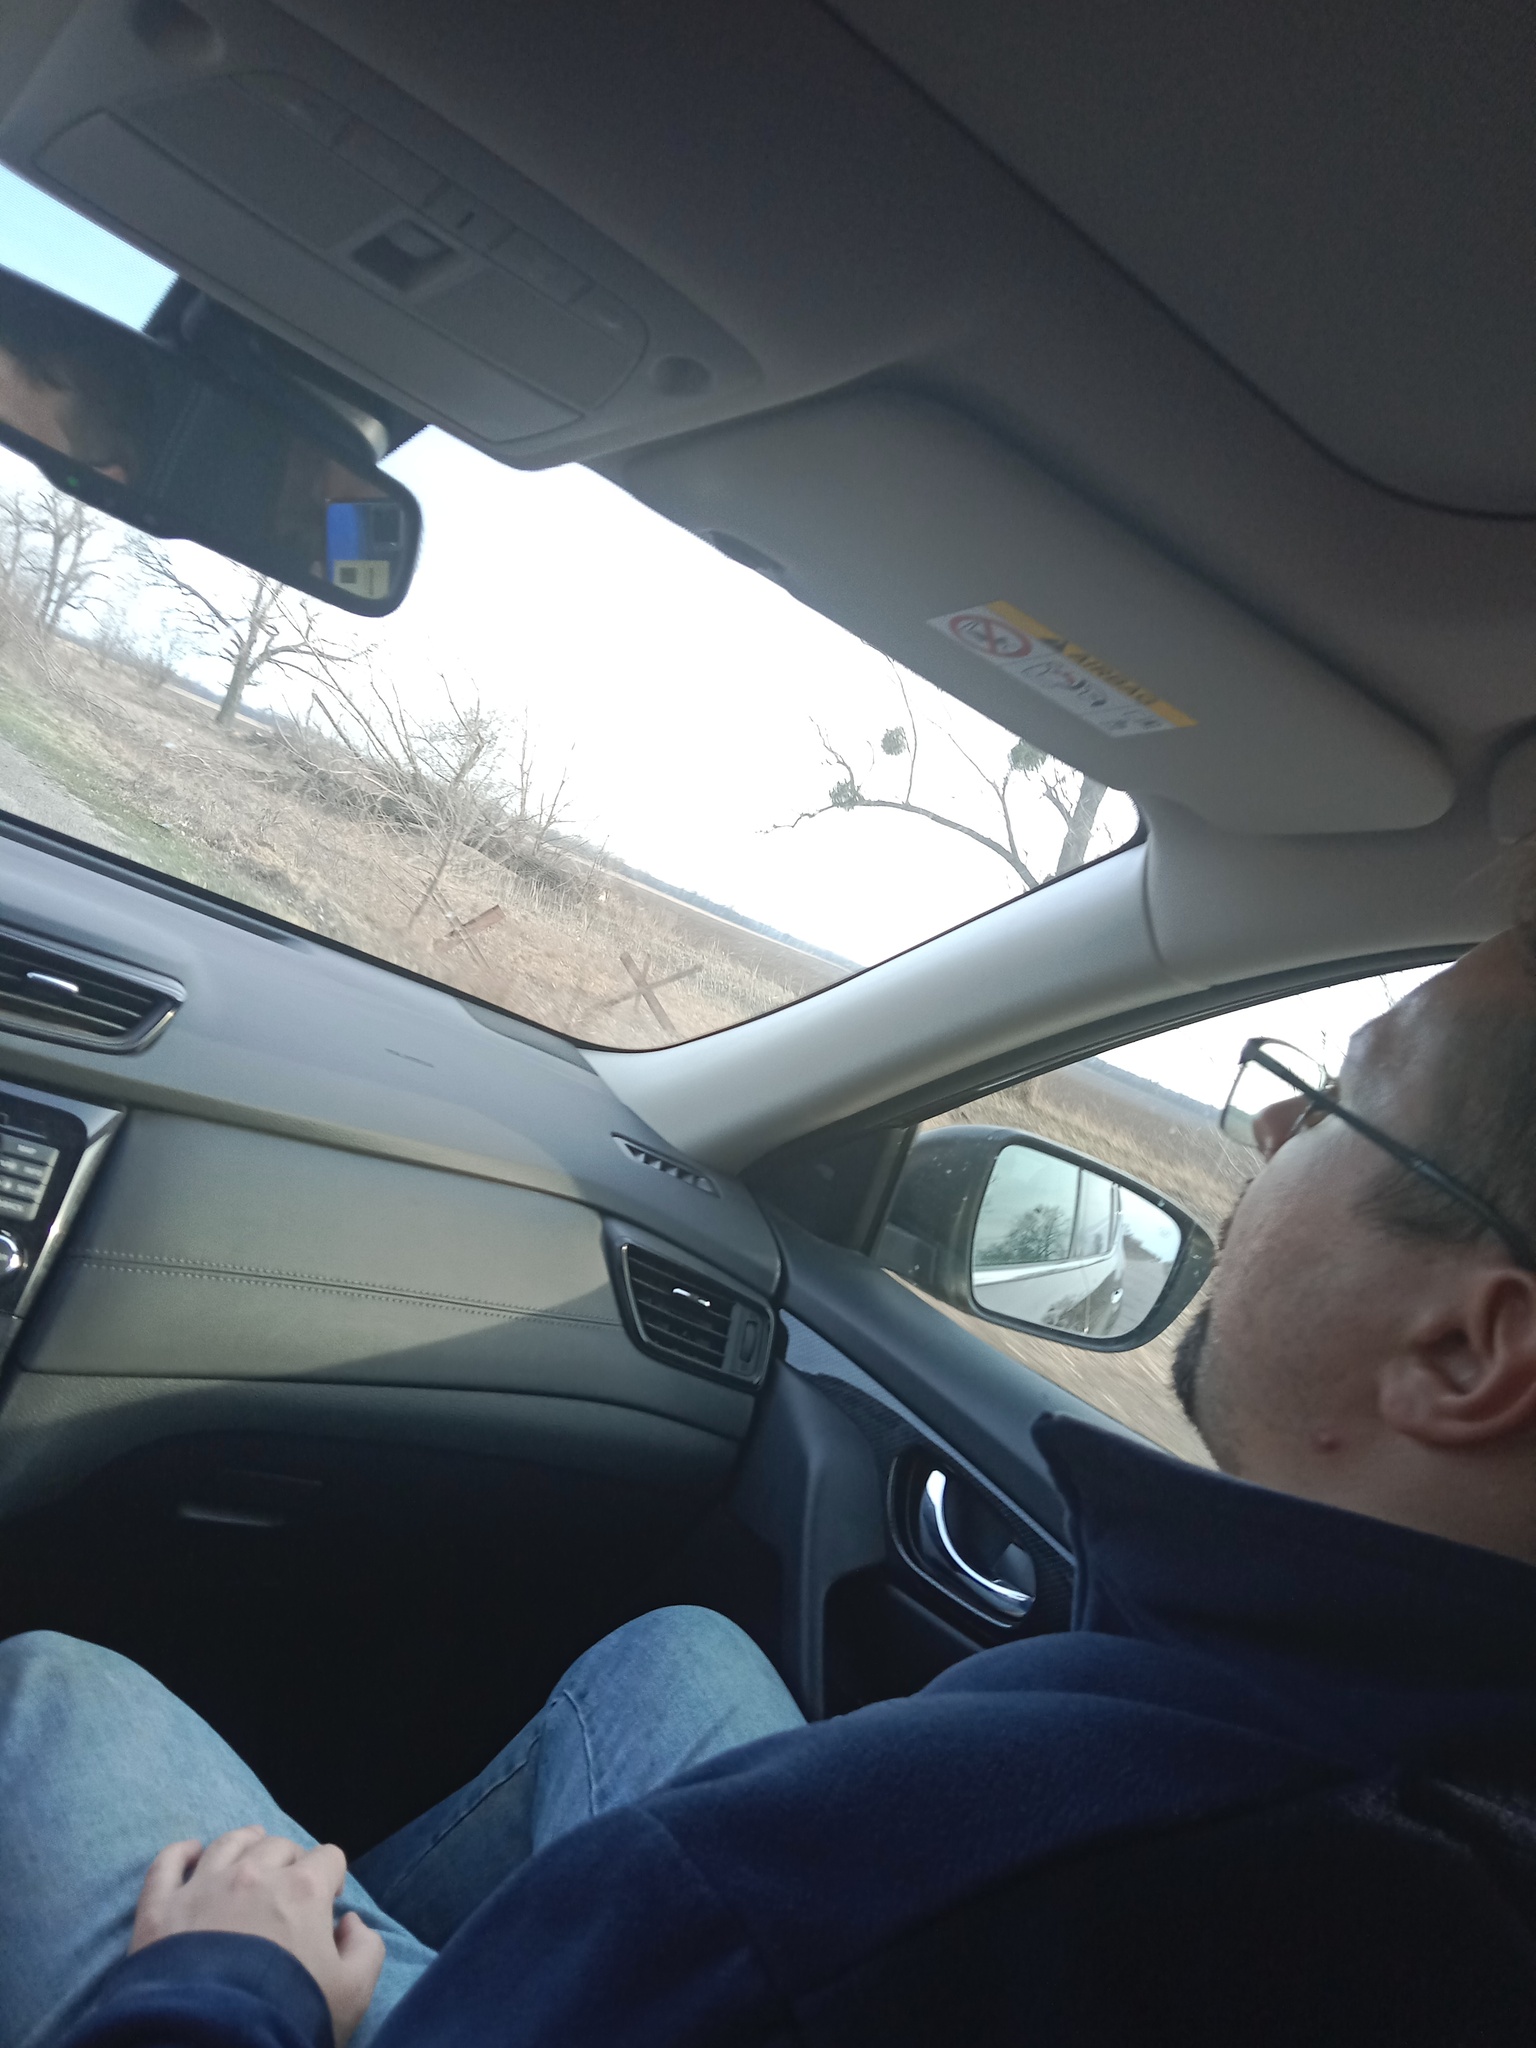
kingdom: Plantae
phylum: Tracheophyta
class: Magnoliopsida
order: Santalales
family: Viscaceae
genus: Viscum
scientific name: Viscum album
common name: Mistletoe
